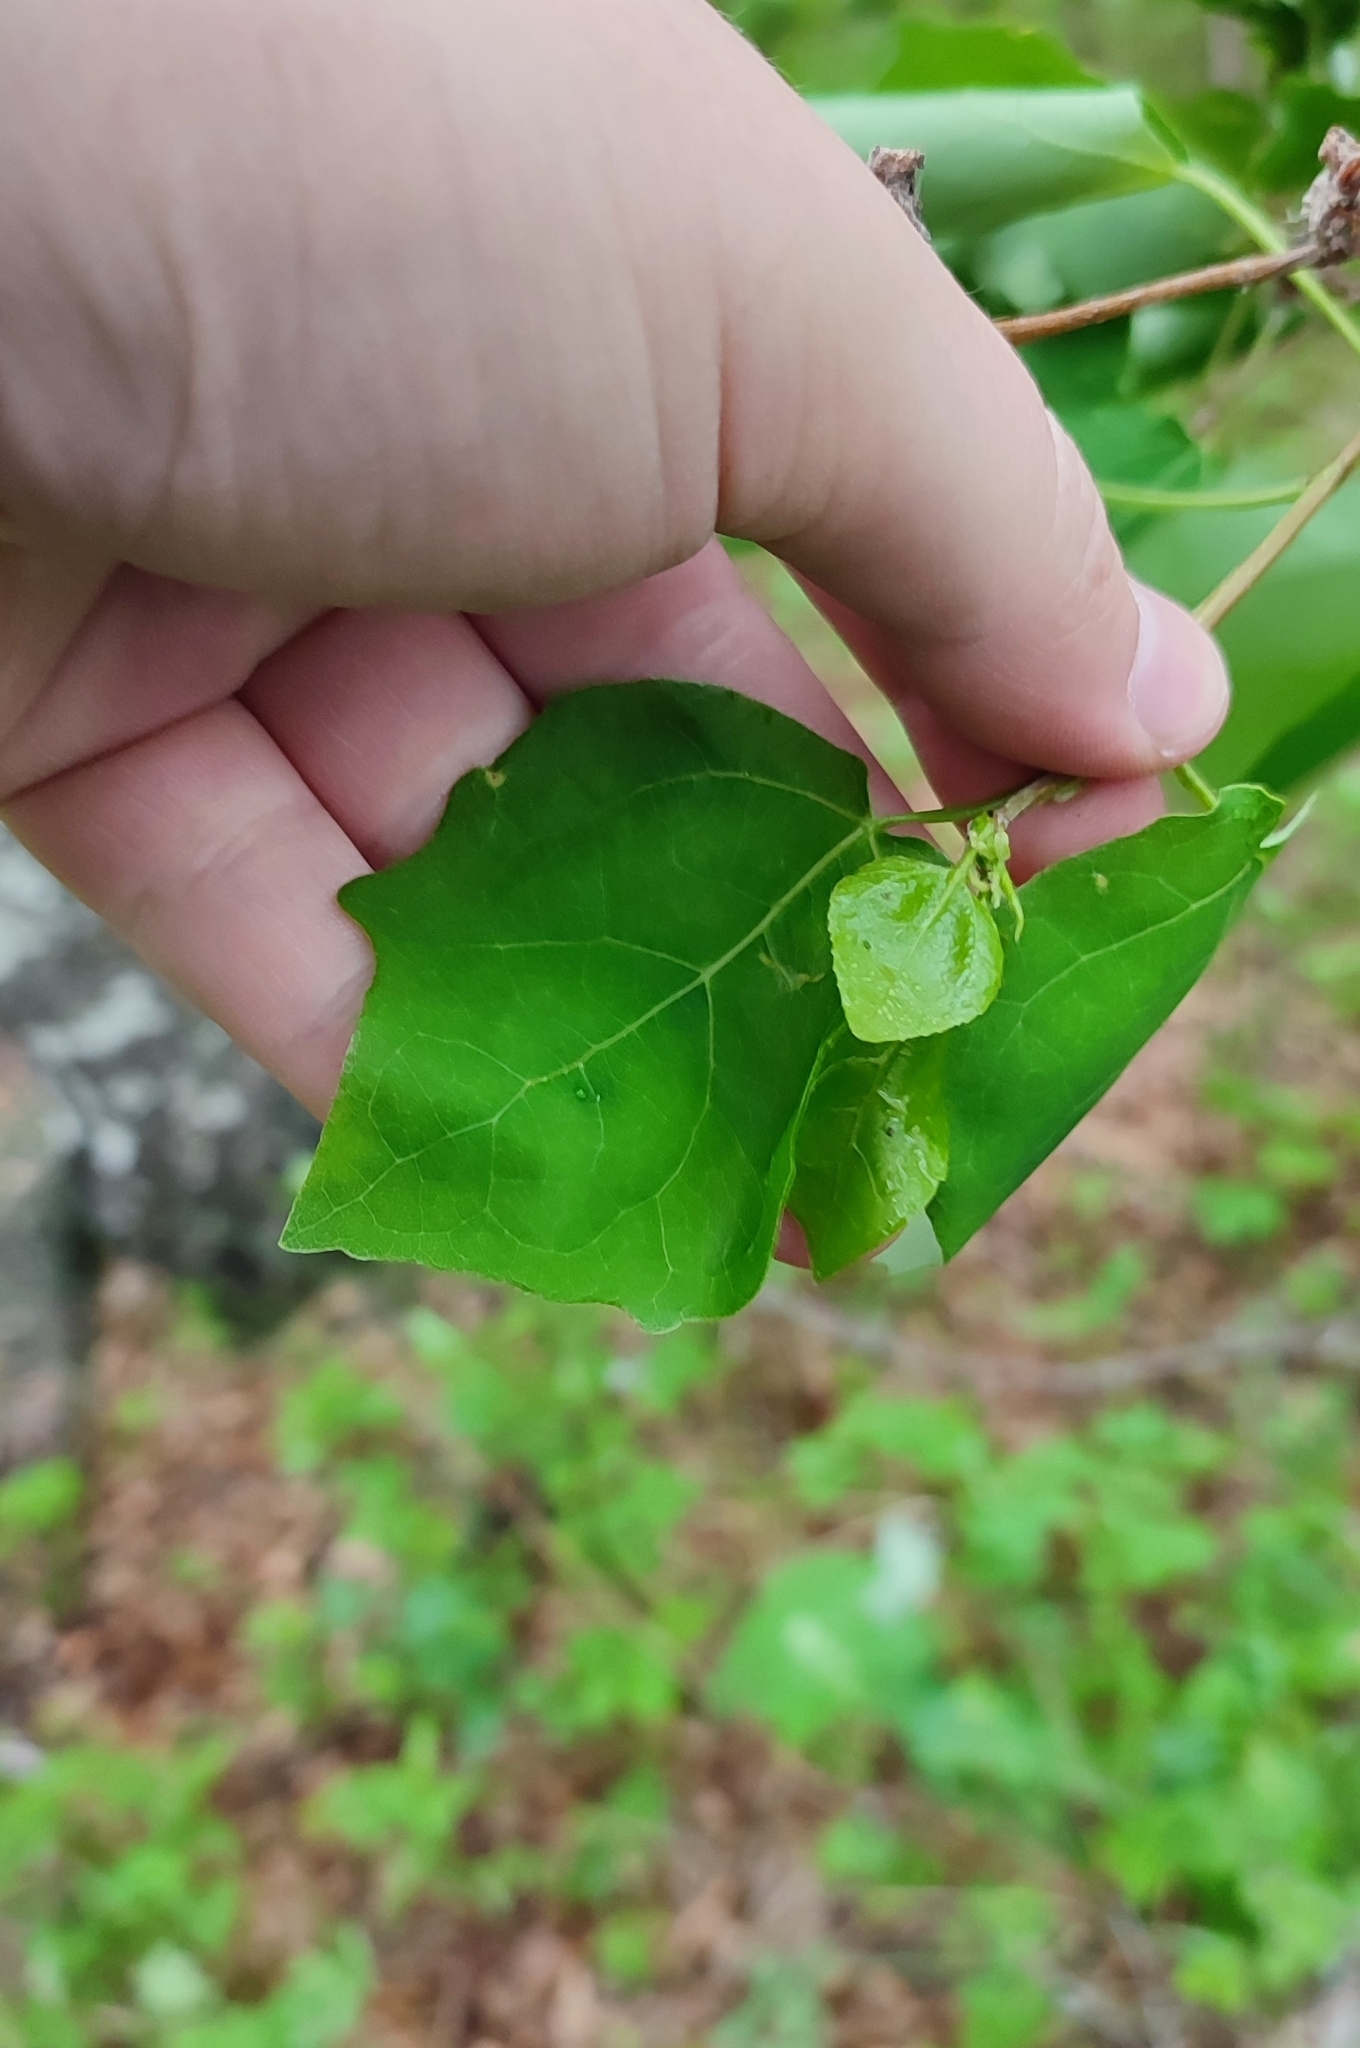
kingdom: Plantae
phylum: Tracheophyta
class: Magnoliopsida
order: Malpighiales
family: Salicaceae
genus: Populus
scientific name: Populus tremula
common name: European aspen
